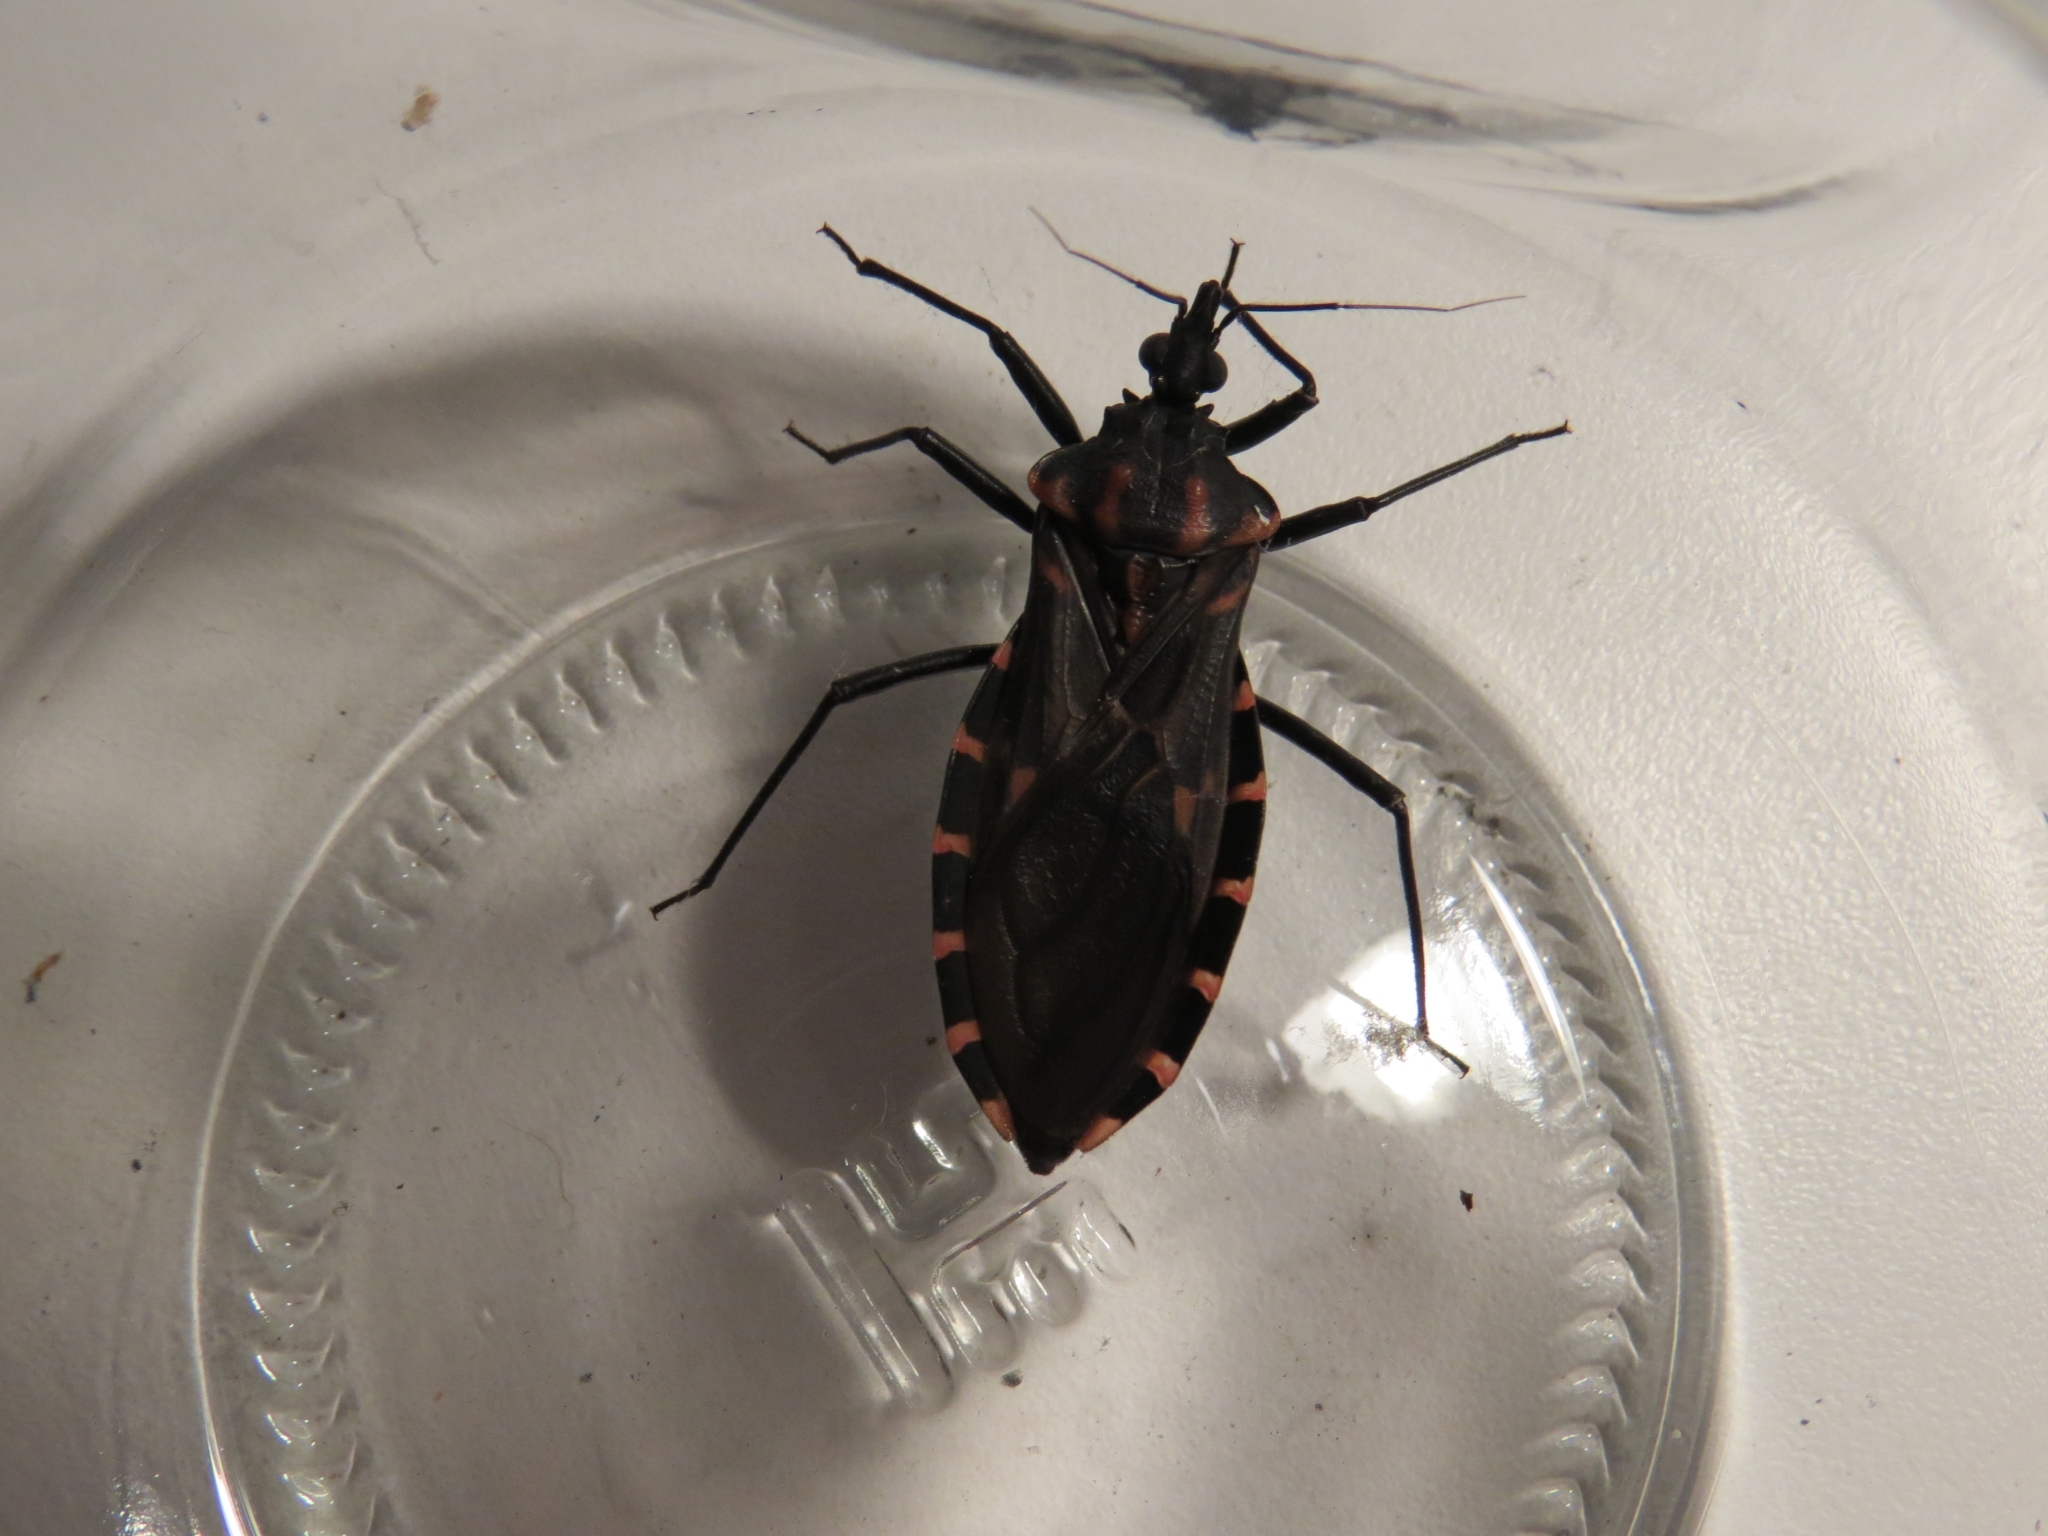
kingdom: Animalia
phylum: Arthropoda
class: Insecta
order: Hemiptera
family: Reduviidae
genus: Panstrongylus
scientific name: Panstrongylus megistus
